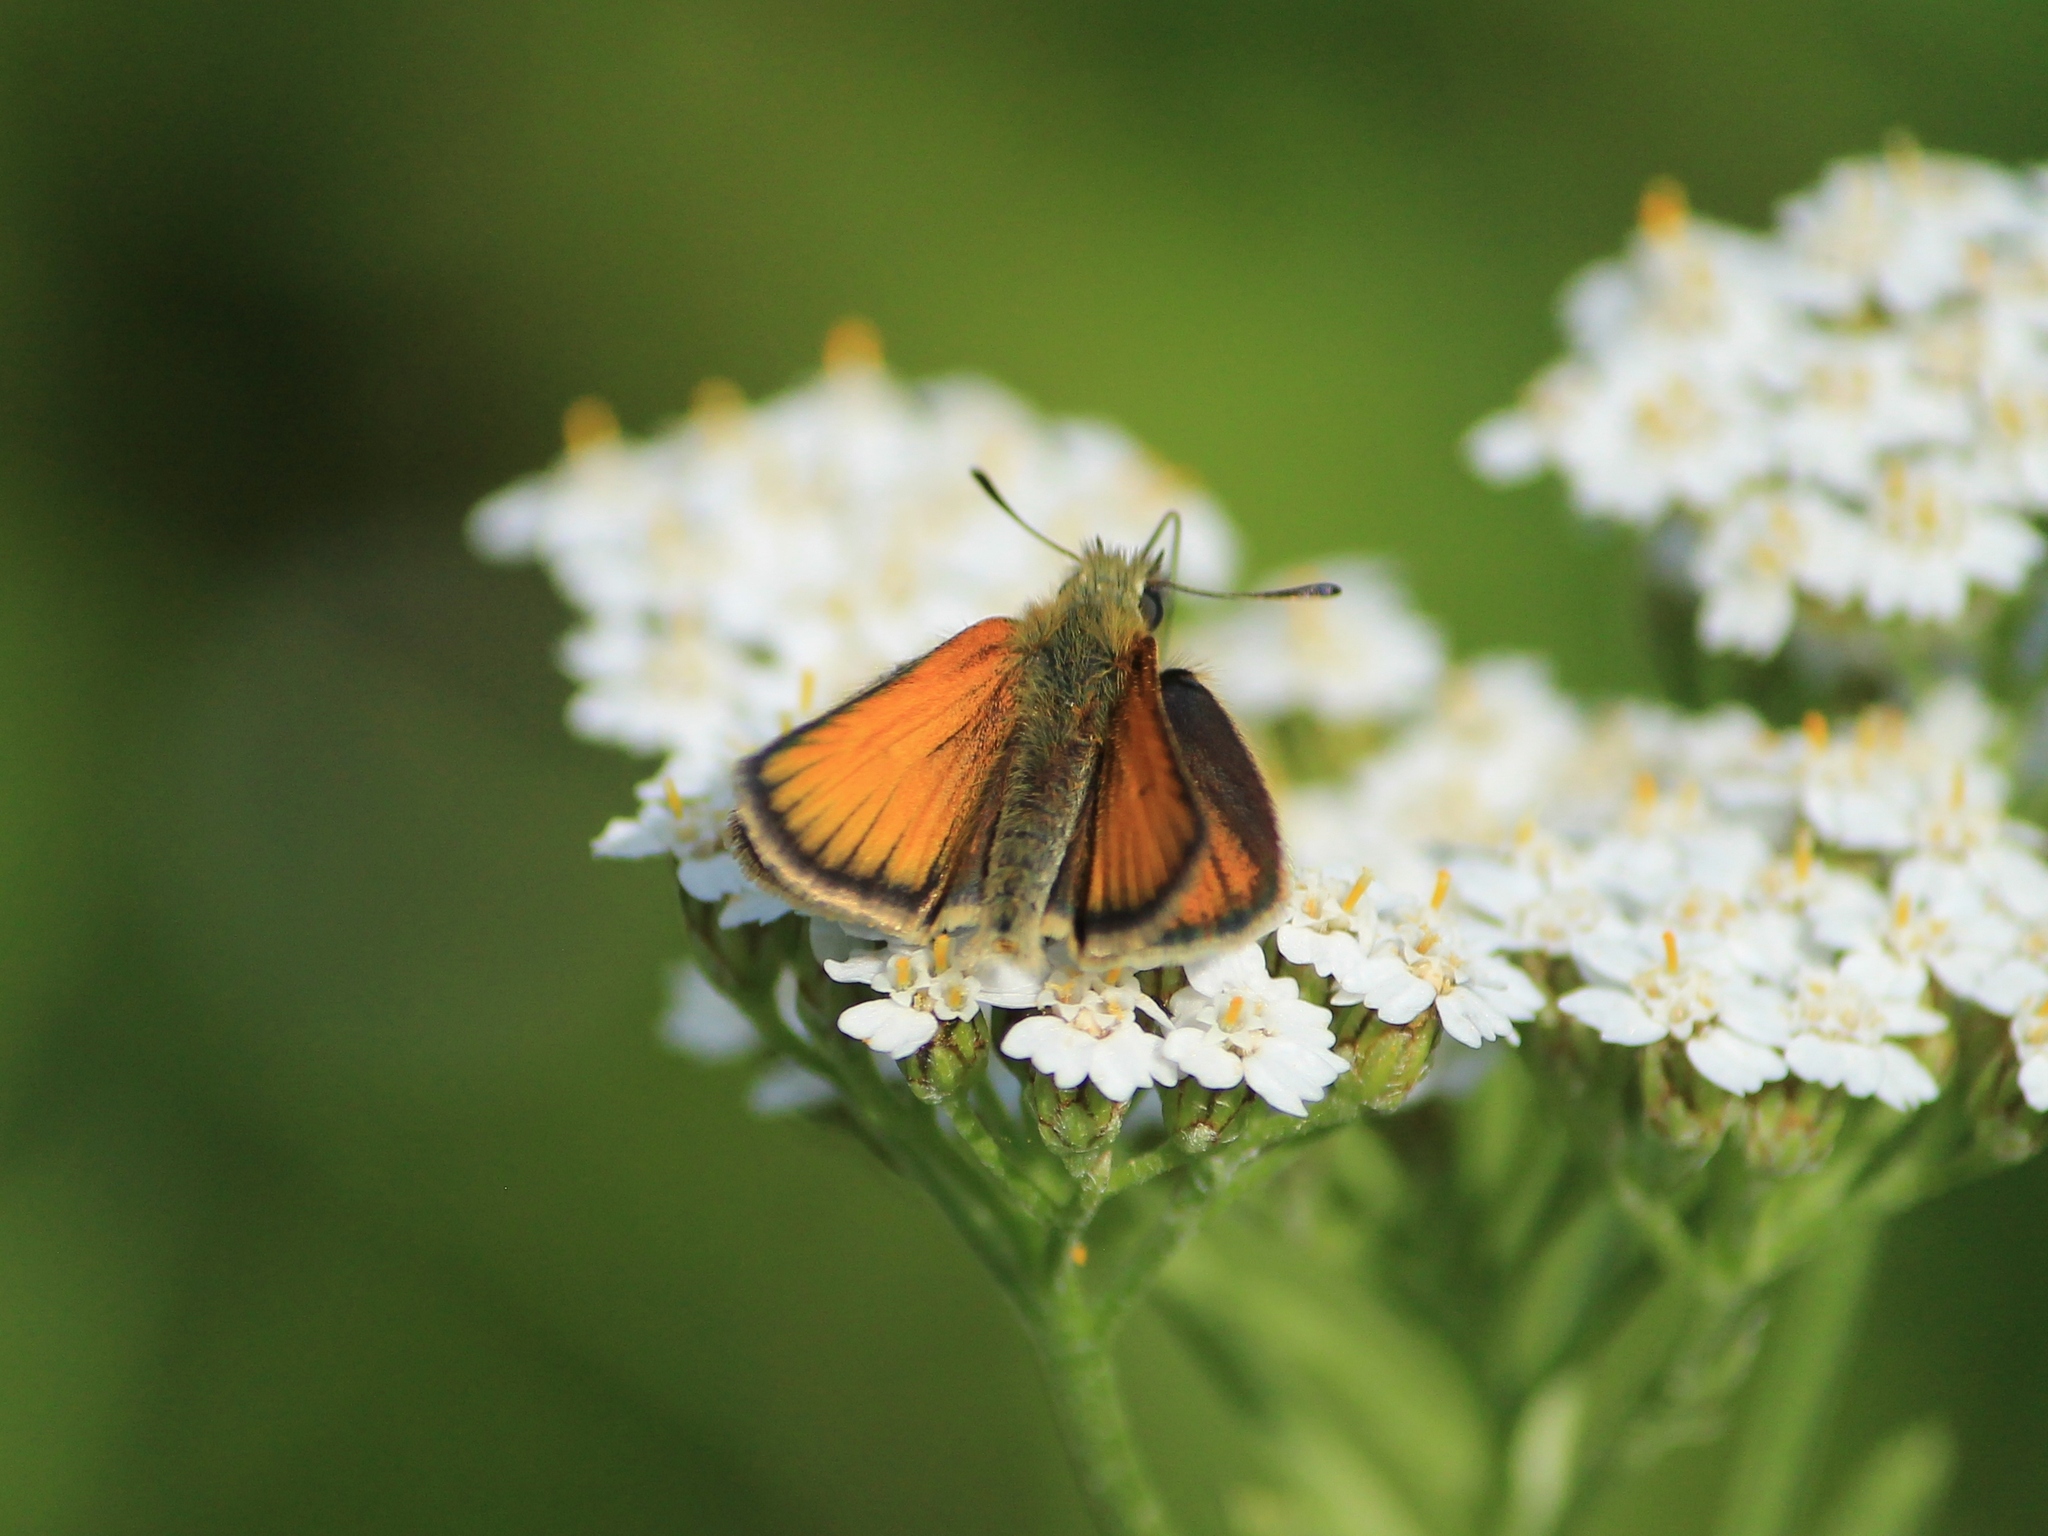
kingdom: Animalia
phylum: Arthropoda
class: Insecta
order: Lepidoptera
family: Hesperiidae
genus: Thymelicus
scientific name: Thymelicus lineola
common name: Essex skipper
